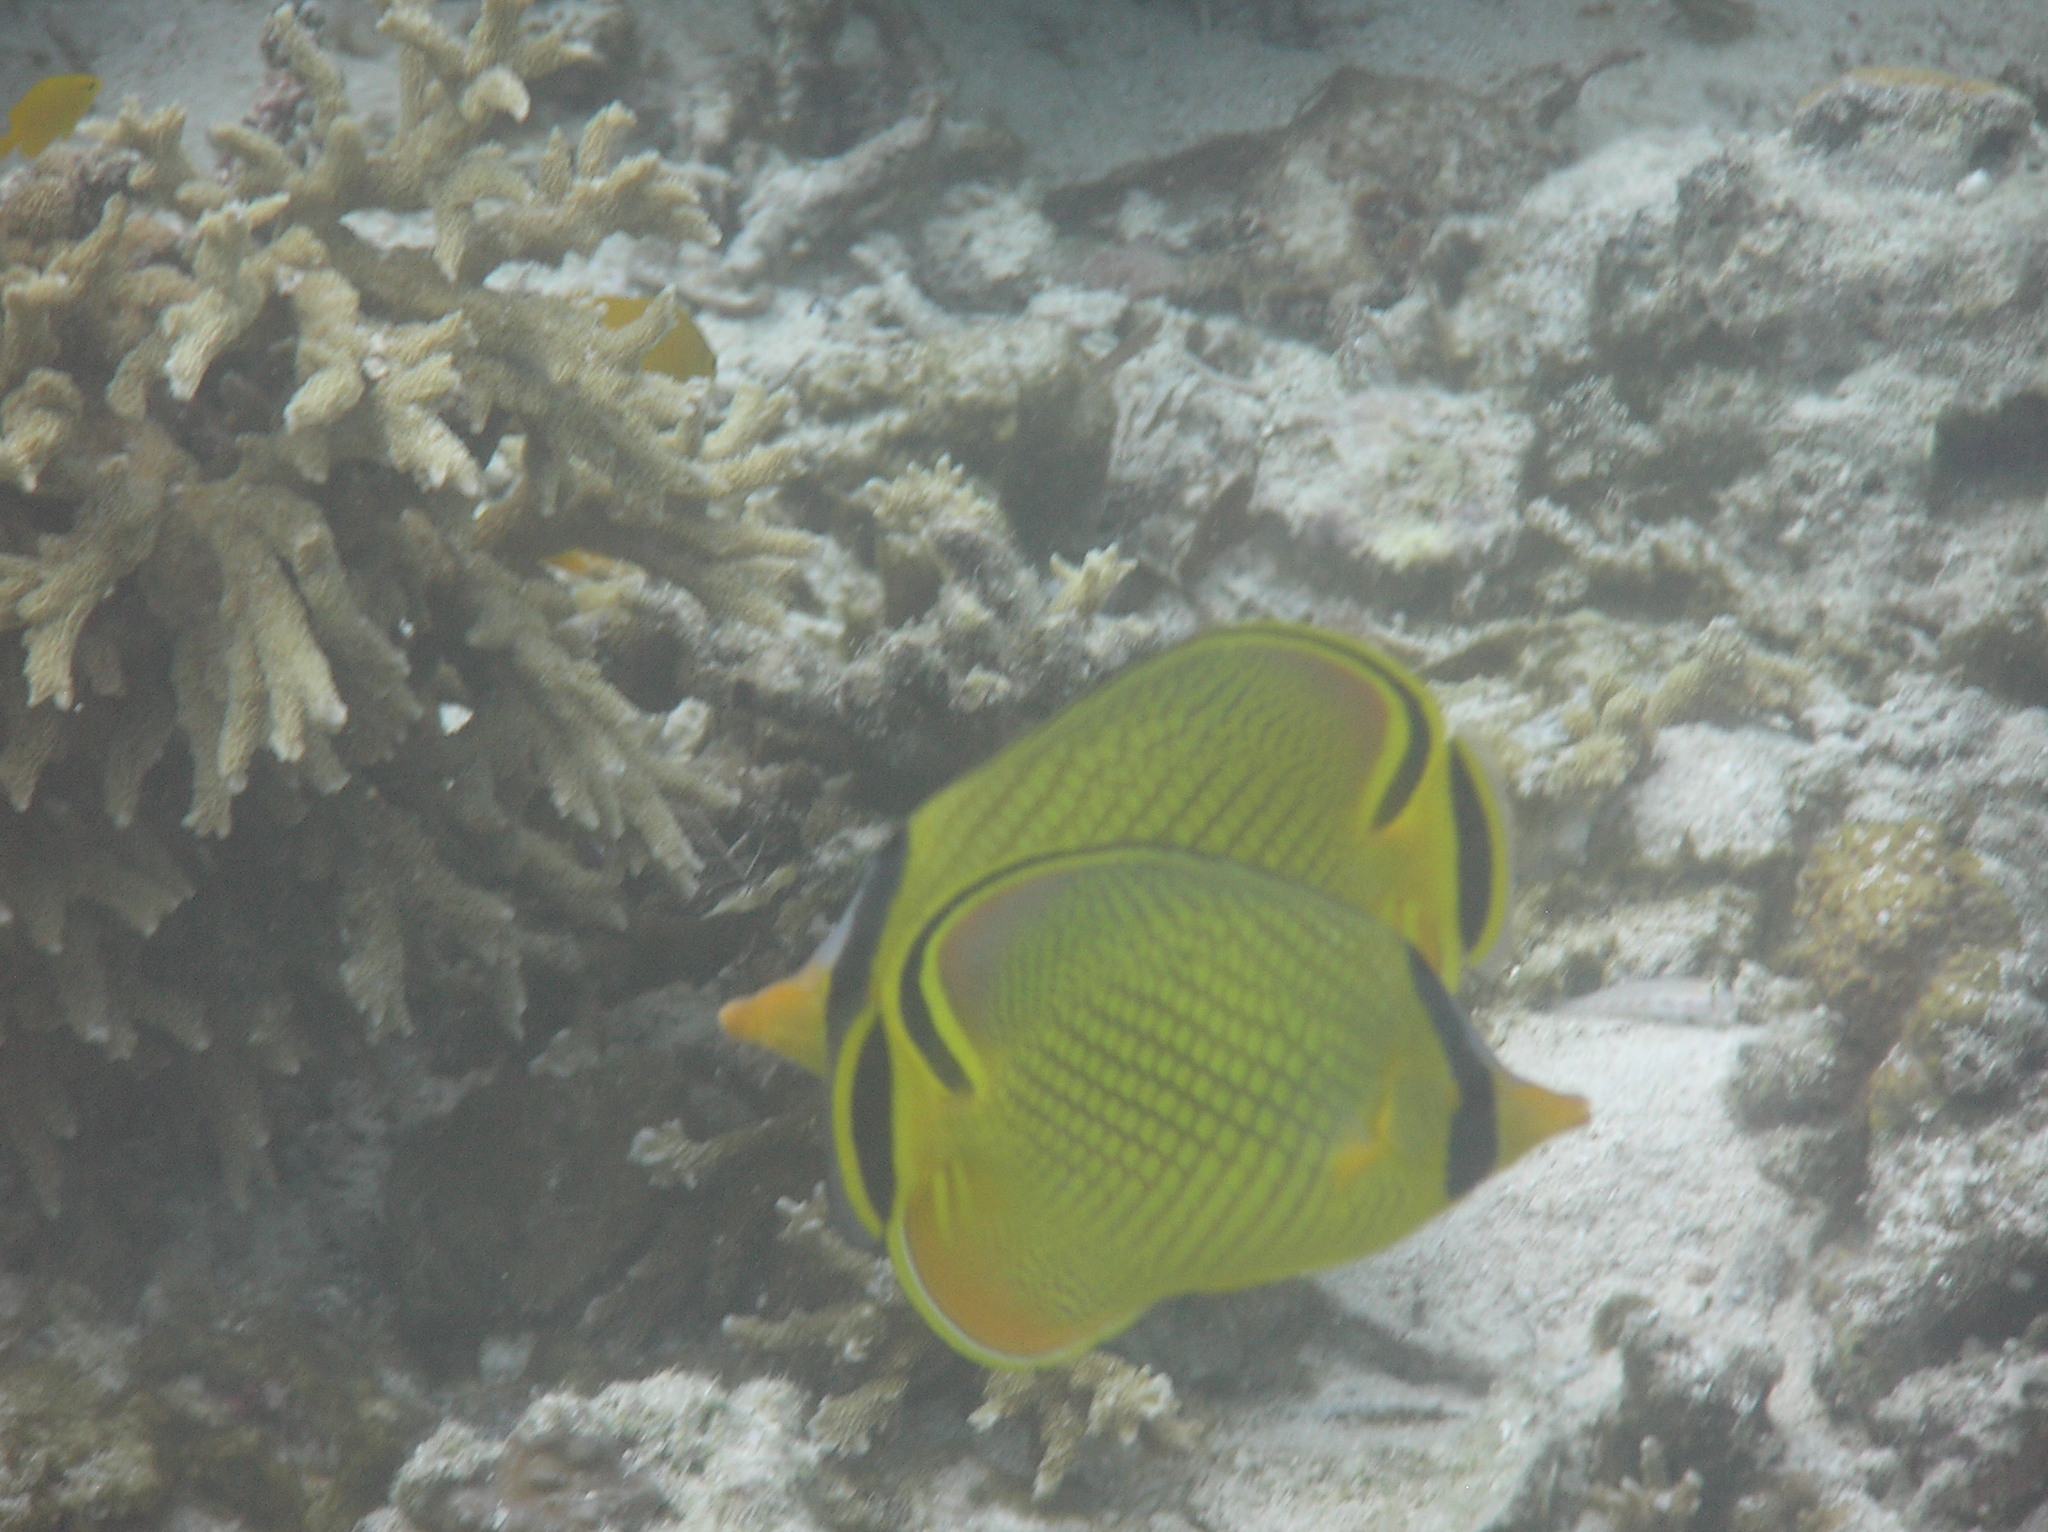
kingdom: Animalia
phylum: Chordata
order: Perciformes
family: Chaetodontidae
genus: Chaetodon
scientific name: Chaetodon rafflesii
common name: Latticed butterflyfish
